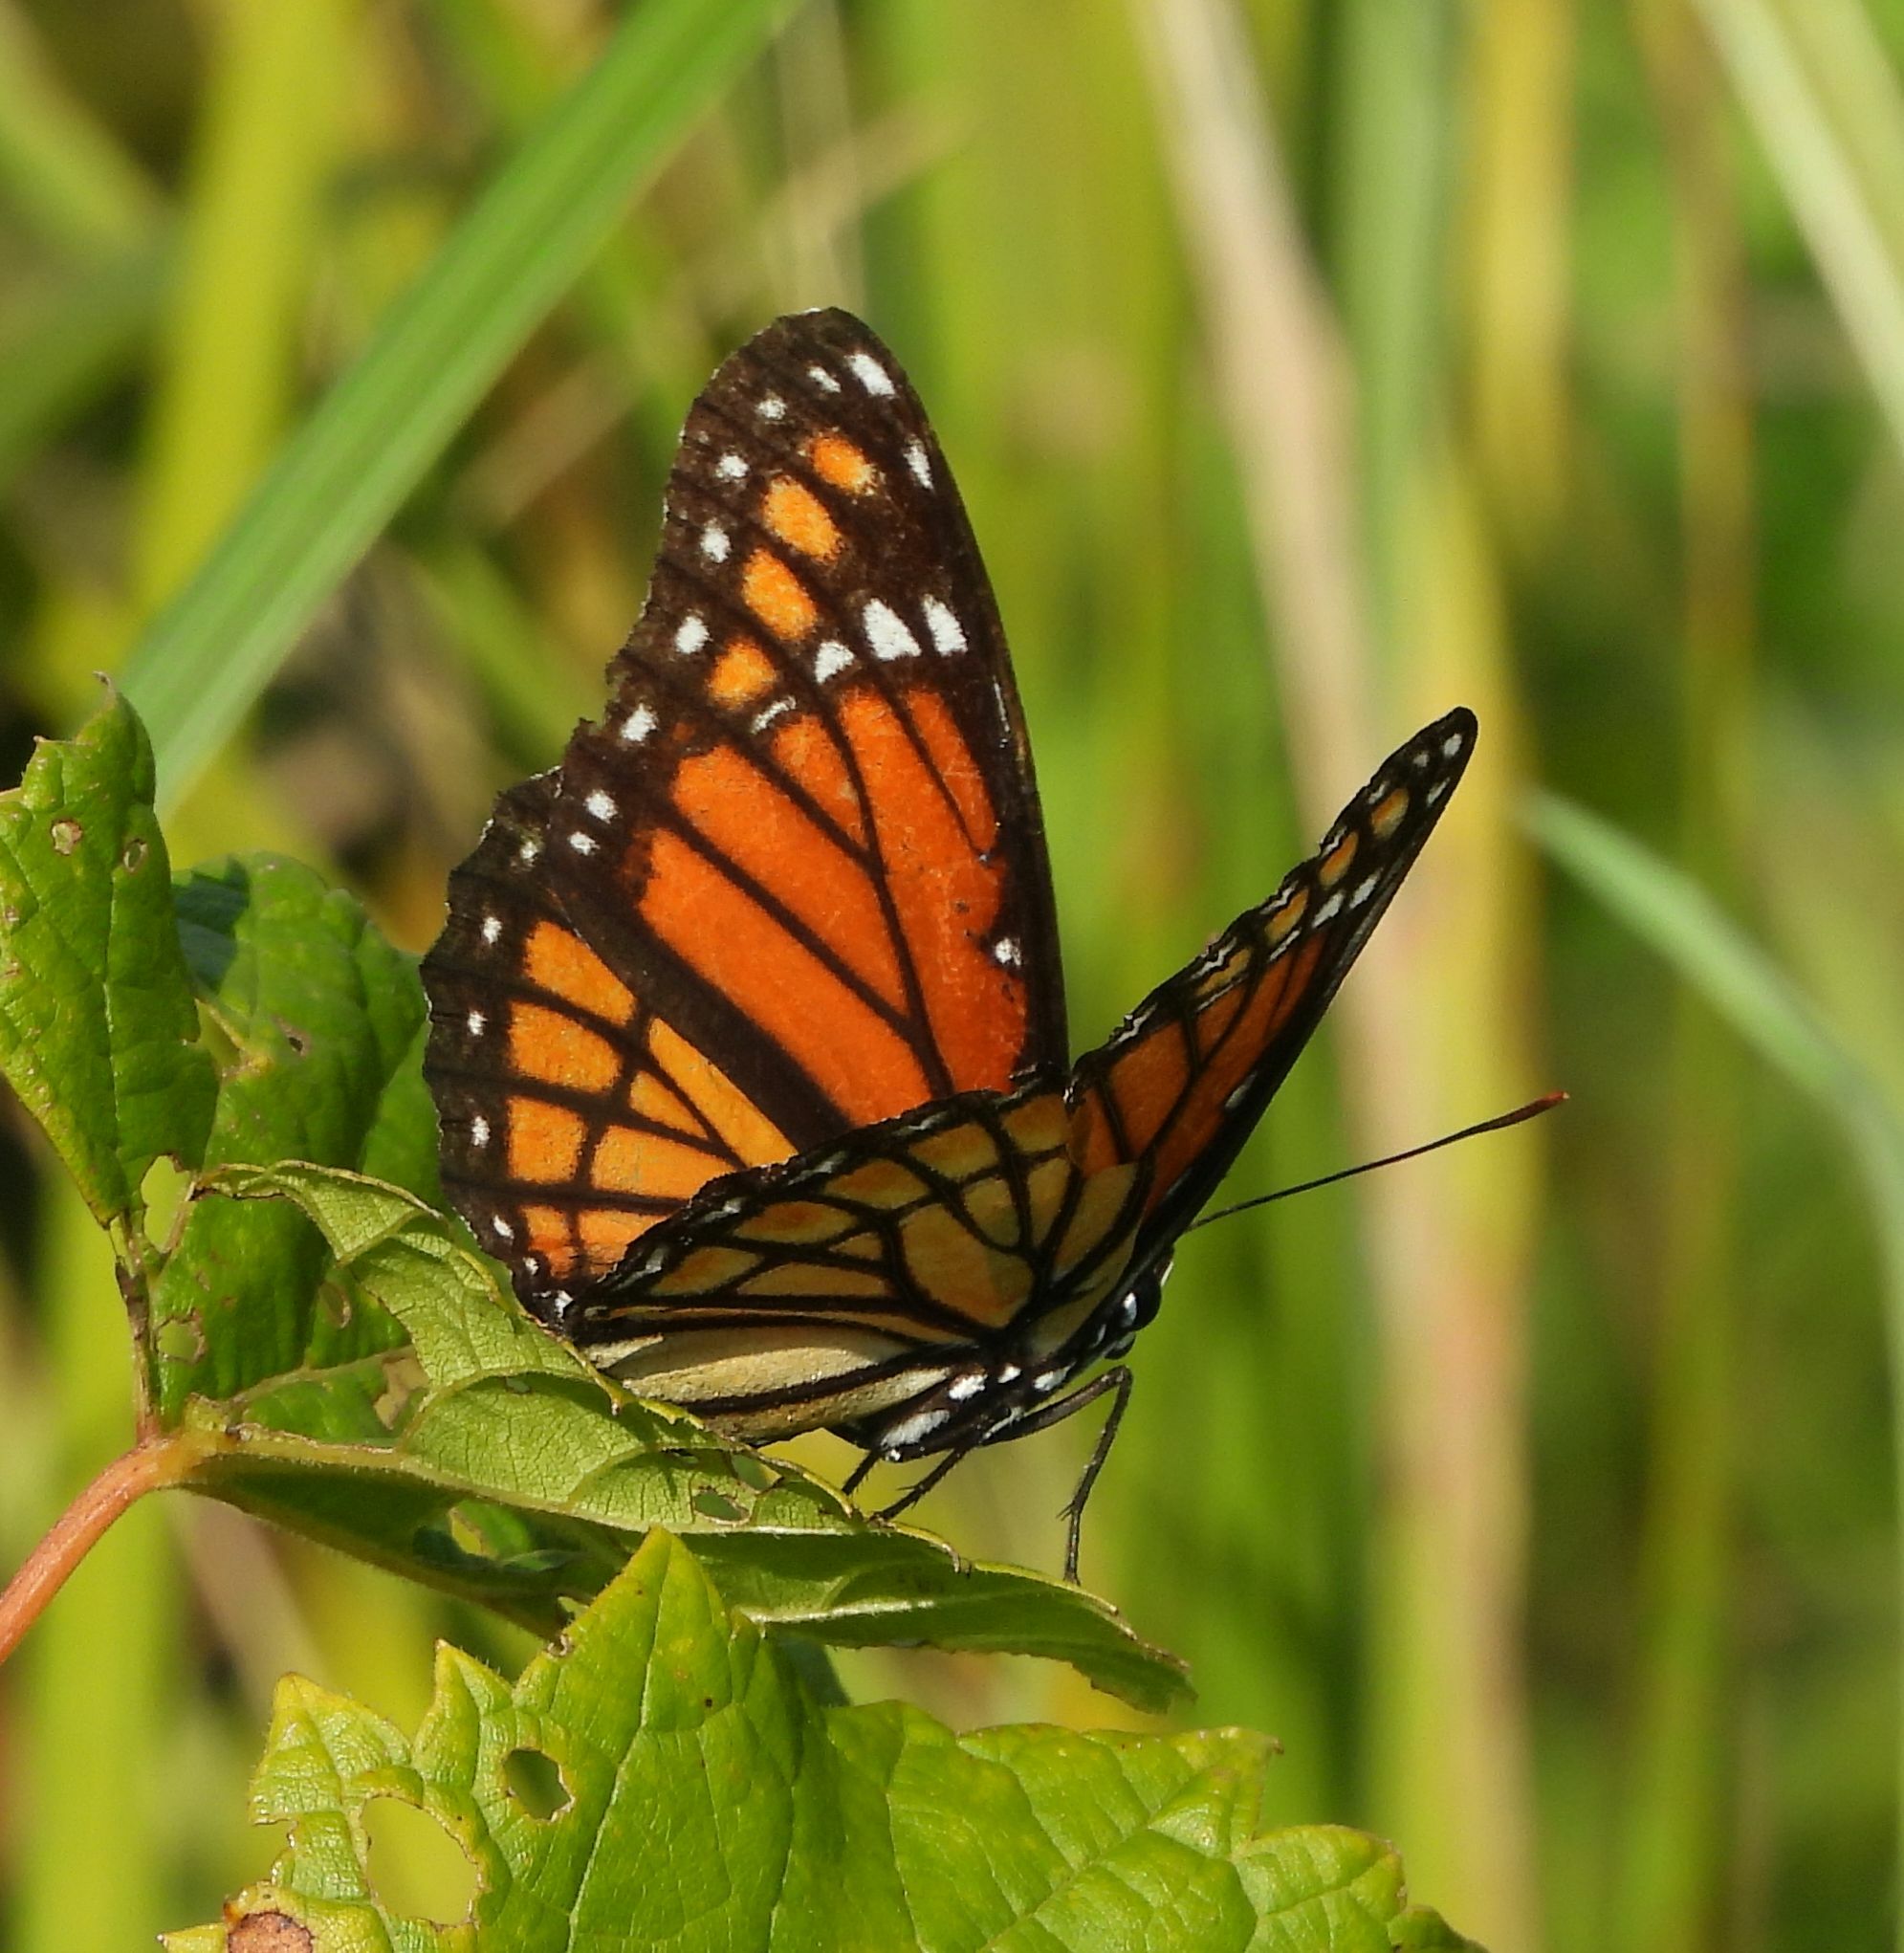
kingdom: Animalia
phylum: Arthropoda
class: Insecta
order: Lepidoptera
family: Nymphalidae
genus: Limenitis
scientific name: Limenitis archippus
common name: Viceroy
